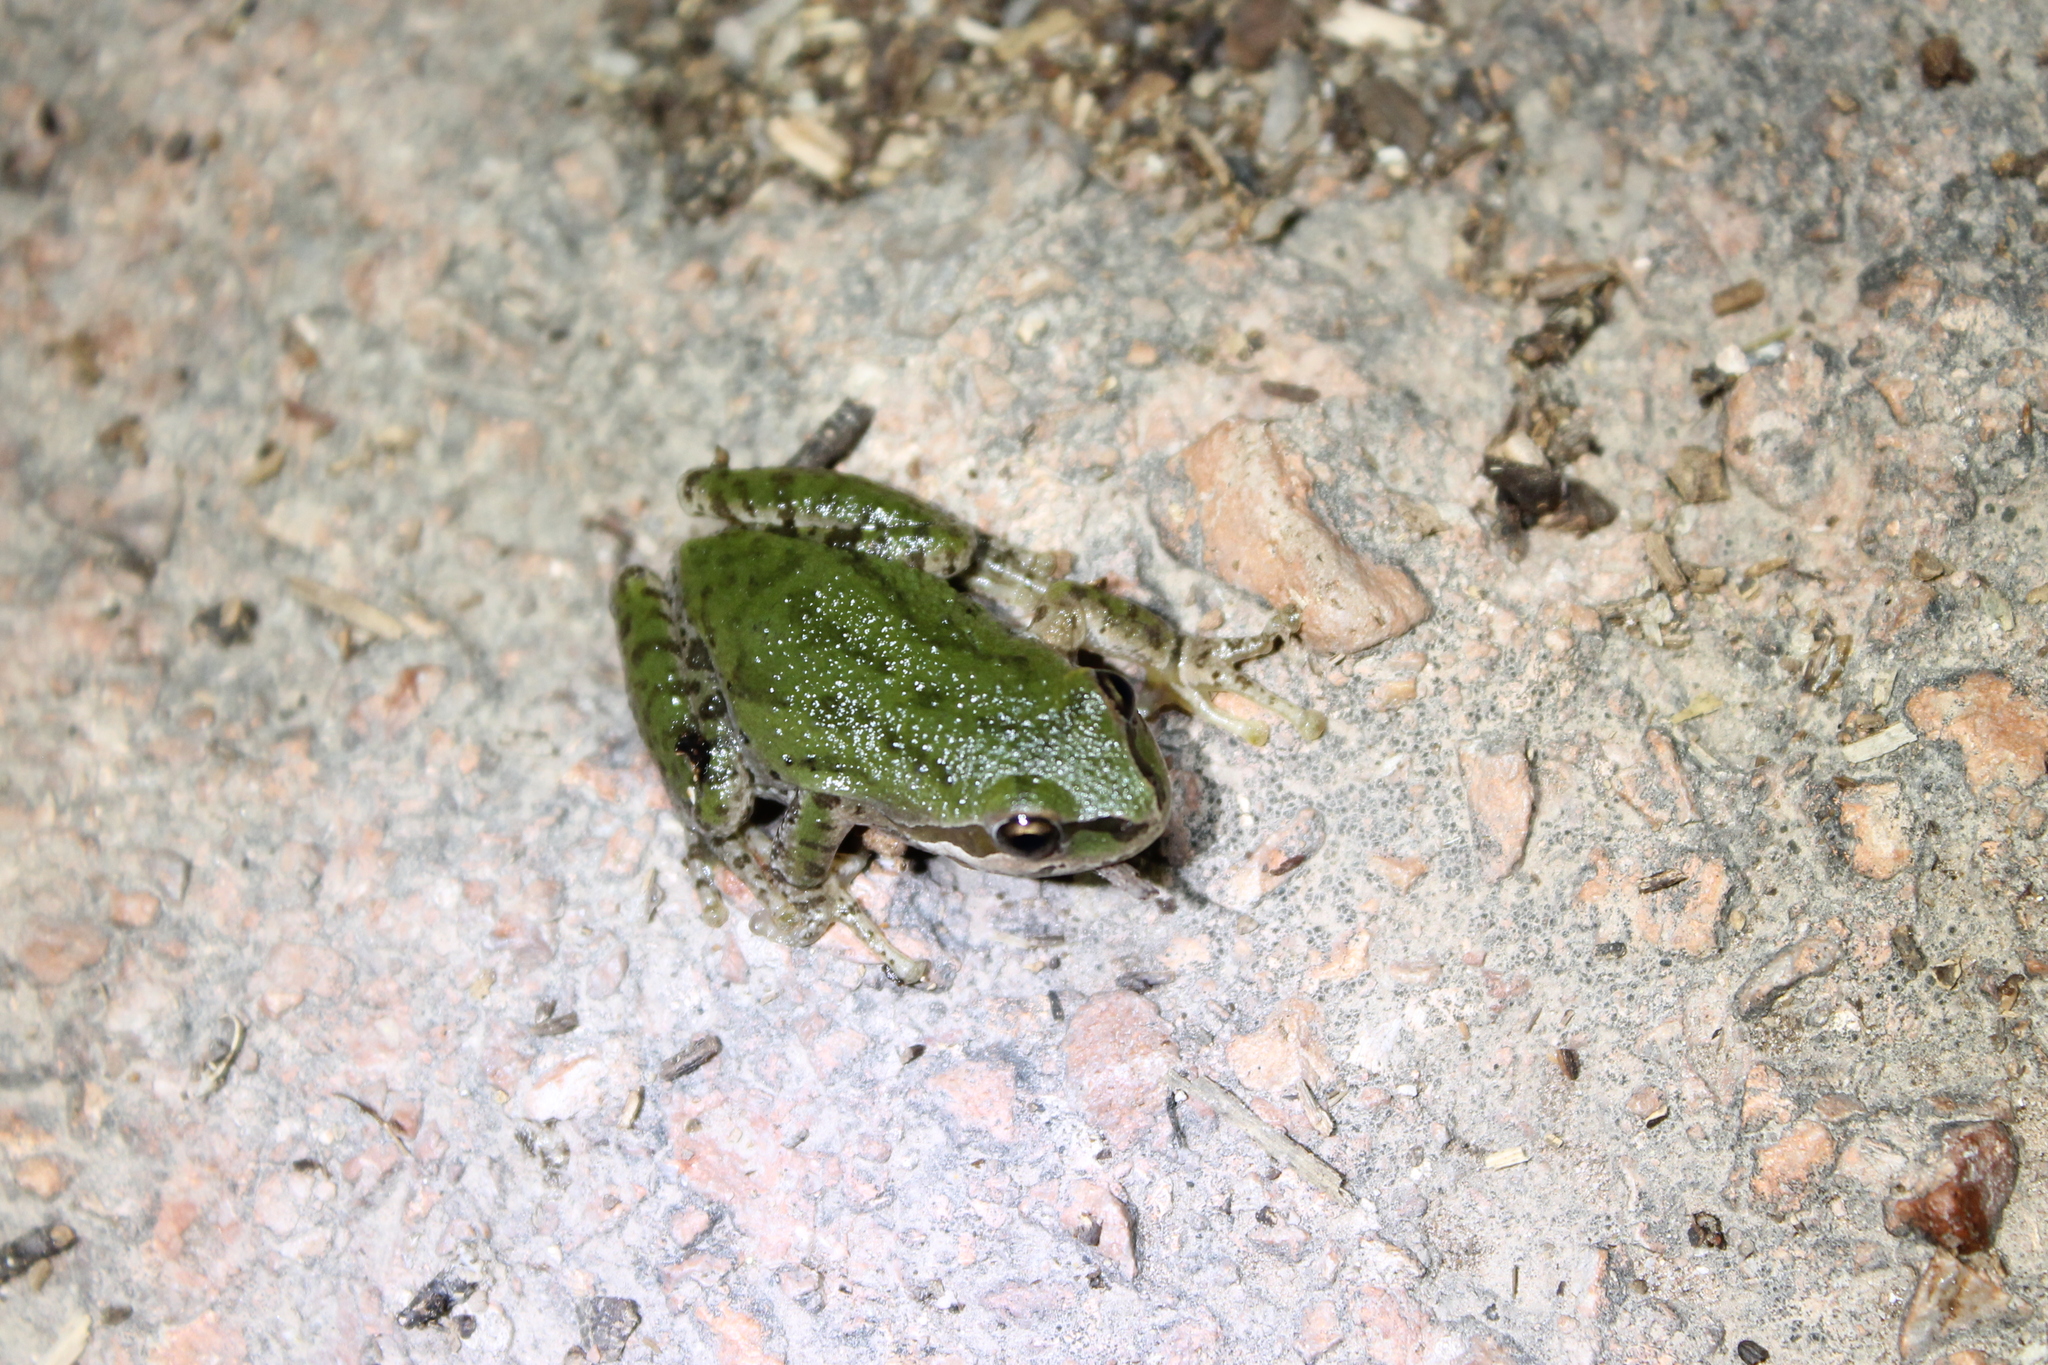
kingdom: Animalia
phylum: Chordata
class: Amphibia
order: Anura
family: Hylidae
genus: Pseudacris
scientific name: Pseudacris regilla
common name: Pacific chorus frog
